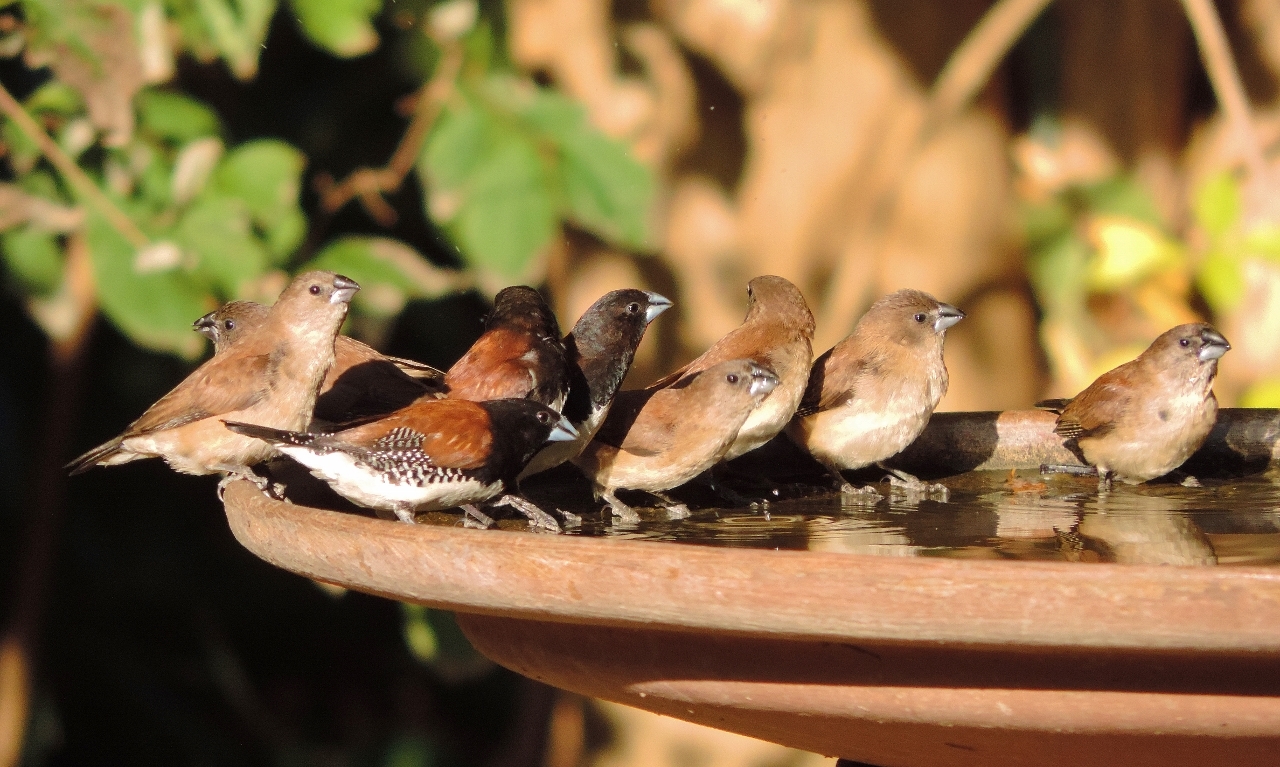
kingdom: Animalia
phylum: Chordata
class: Aves
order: Passeriformes
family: Estrildidae
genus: Lonchura
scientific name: Lonchura nigriceps
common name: Red-backed mannikin
